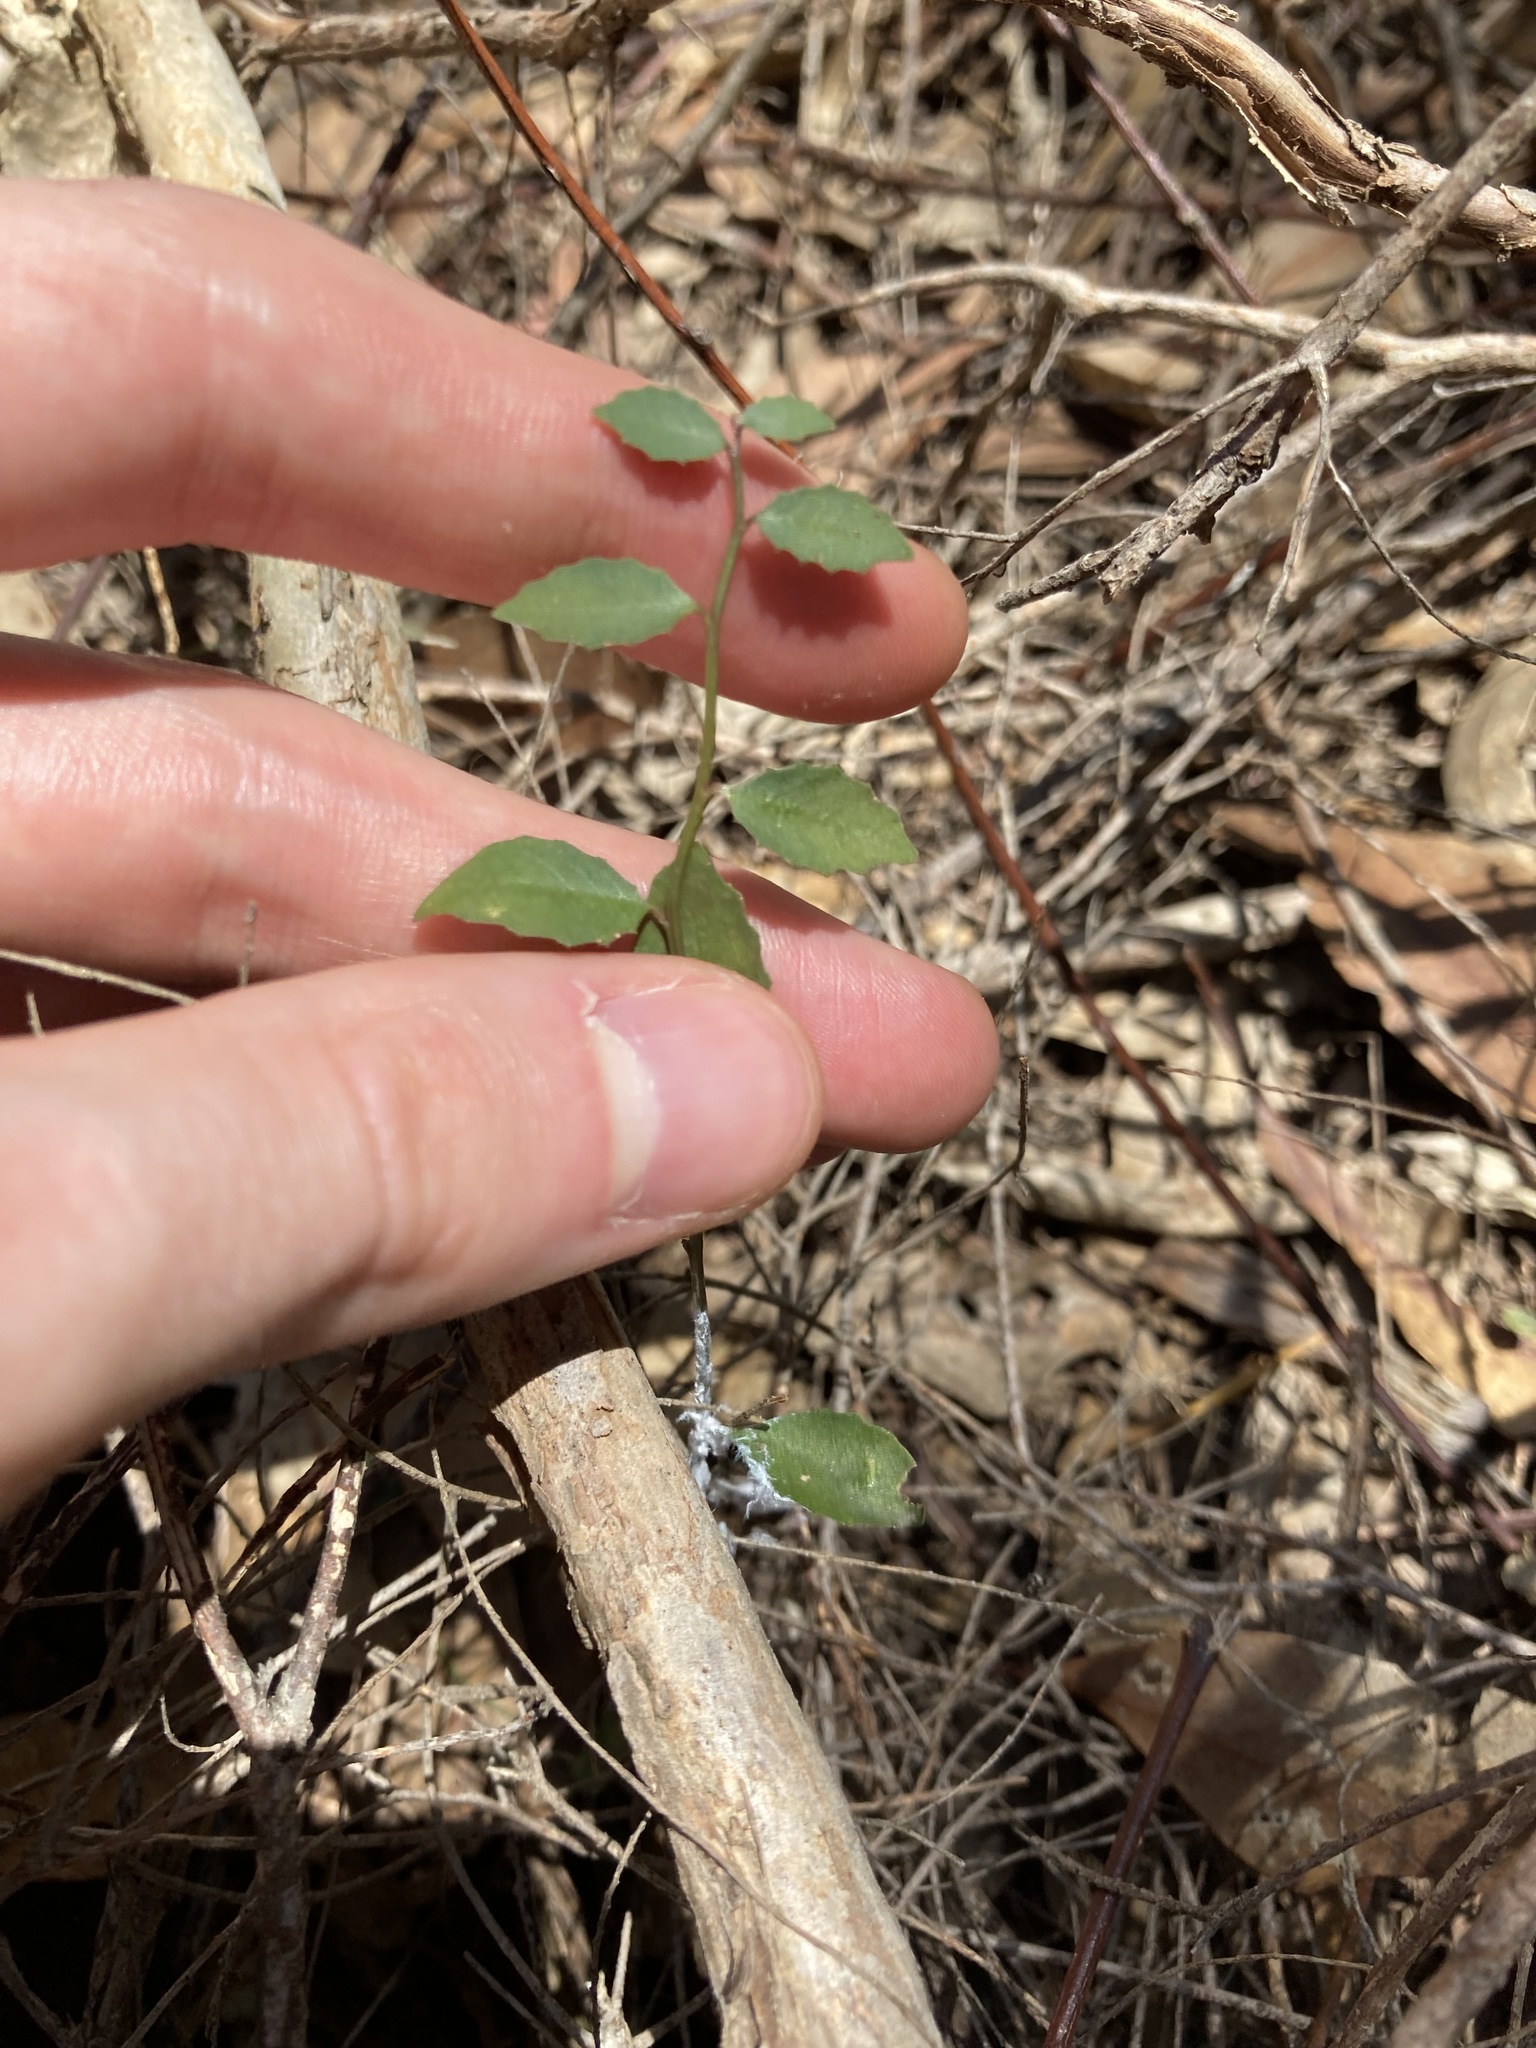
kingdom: Plantae
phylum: Tracheophyta
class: Magnoliopsida
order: Asterales
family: Campanulaceae
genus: Lobelia
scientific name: Lobelia purpurascens
